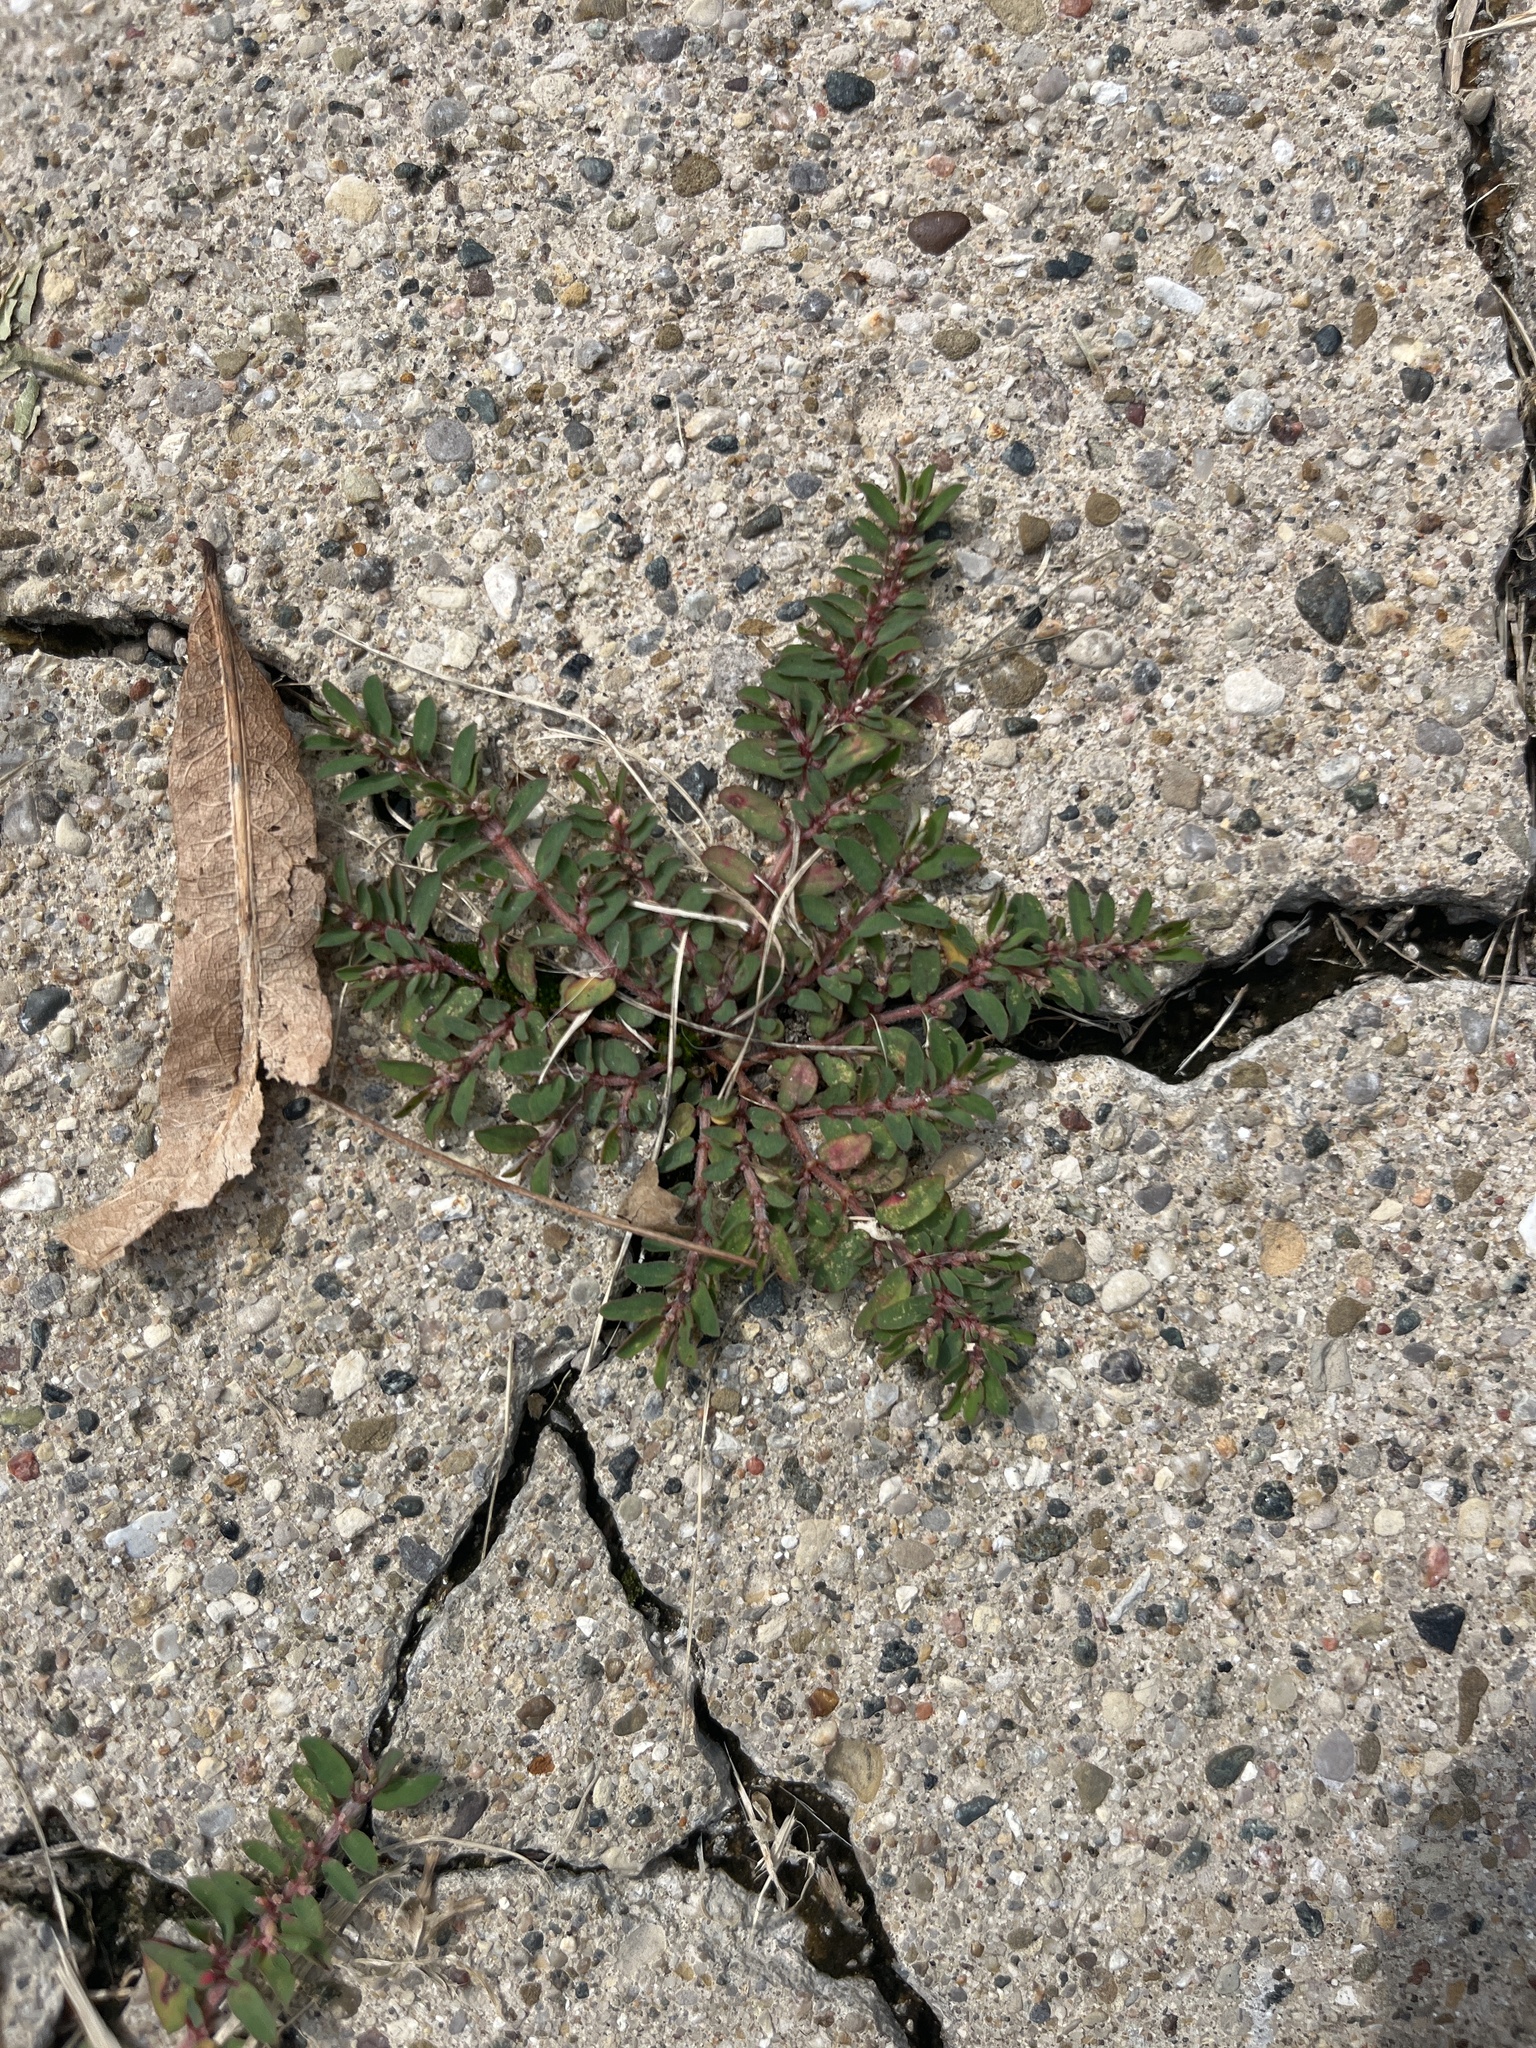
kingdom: Plantae
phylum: Tracheophyta
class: Magnoliopsida
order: Malpighiales
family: Euphorbiaceae
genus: Euphorbia
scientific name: Euphorbia maculata
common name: Spotted spurge
